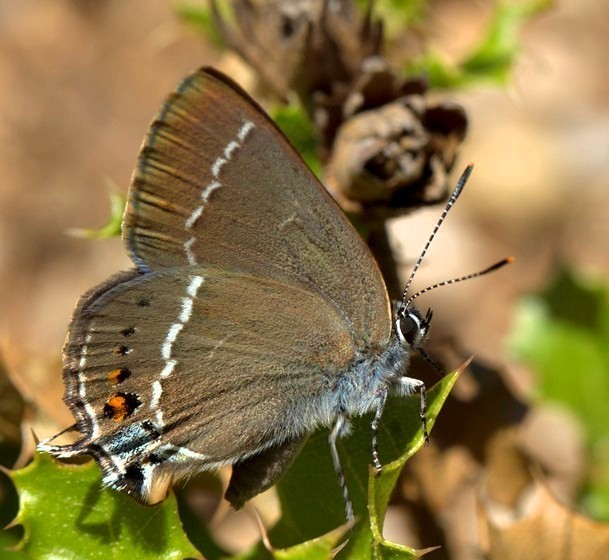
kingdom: Animalia
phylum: Arthropoda
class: Insecta
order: Lepidoptera
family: Lycaenidae
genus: Tuttiola
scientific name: Tuttiola spini
